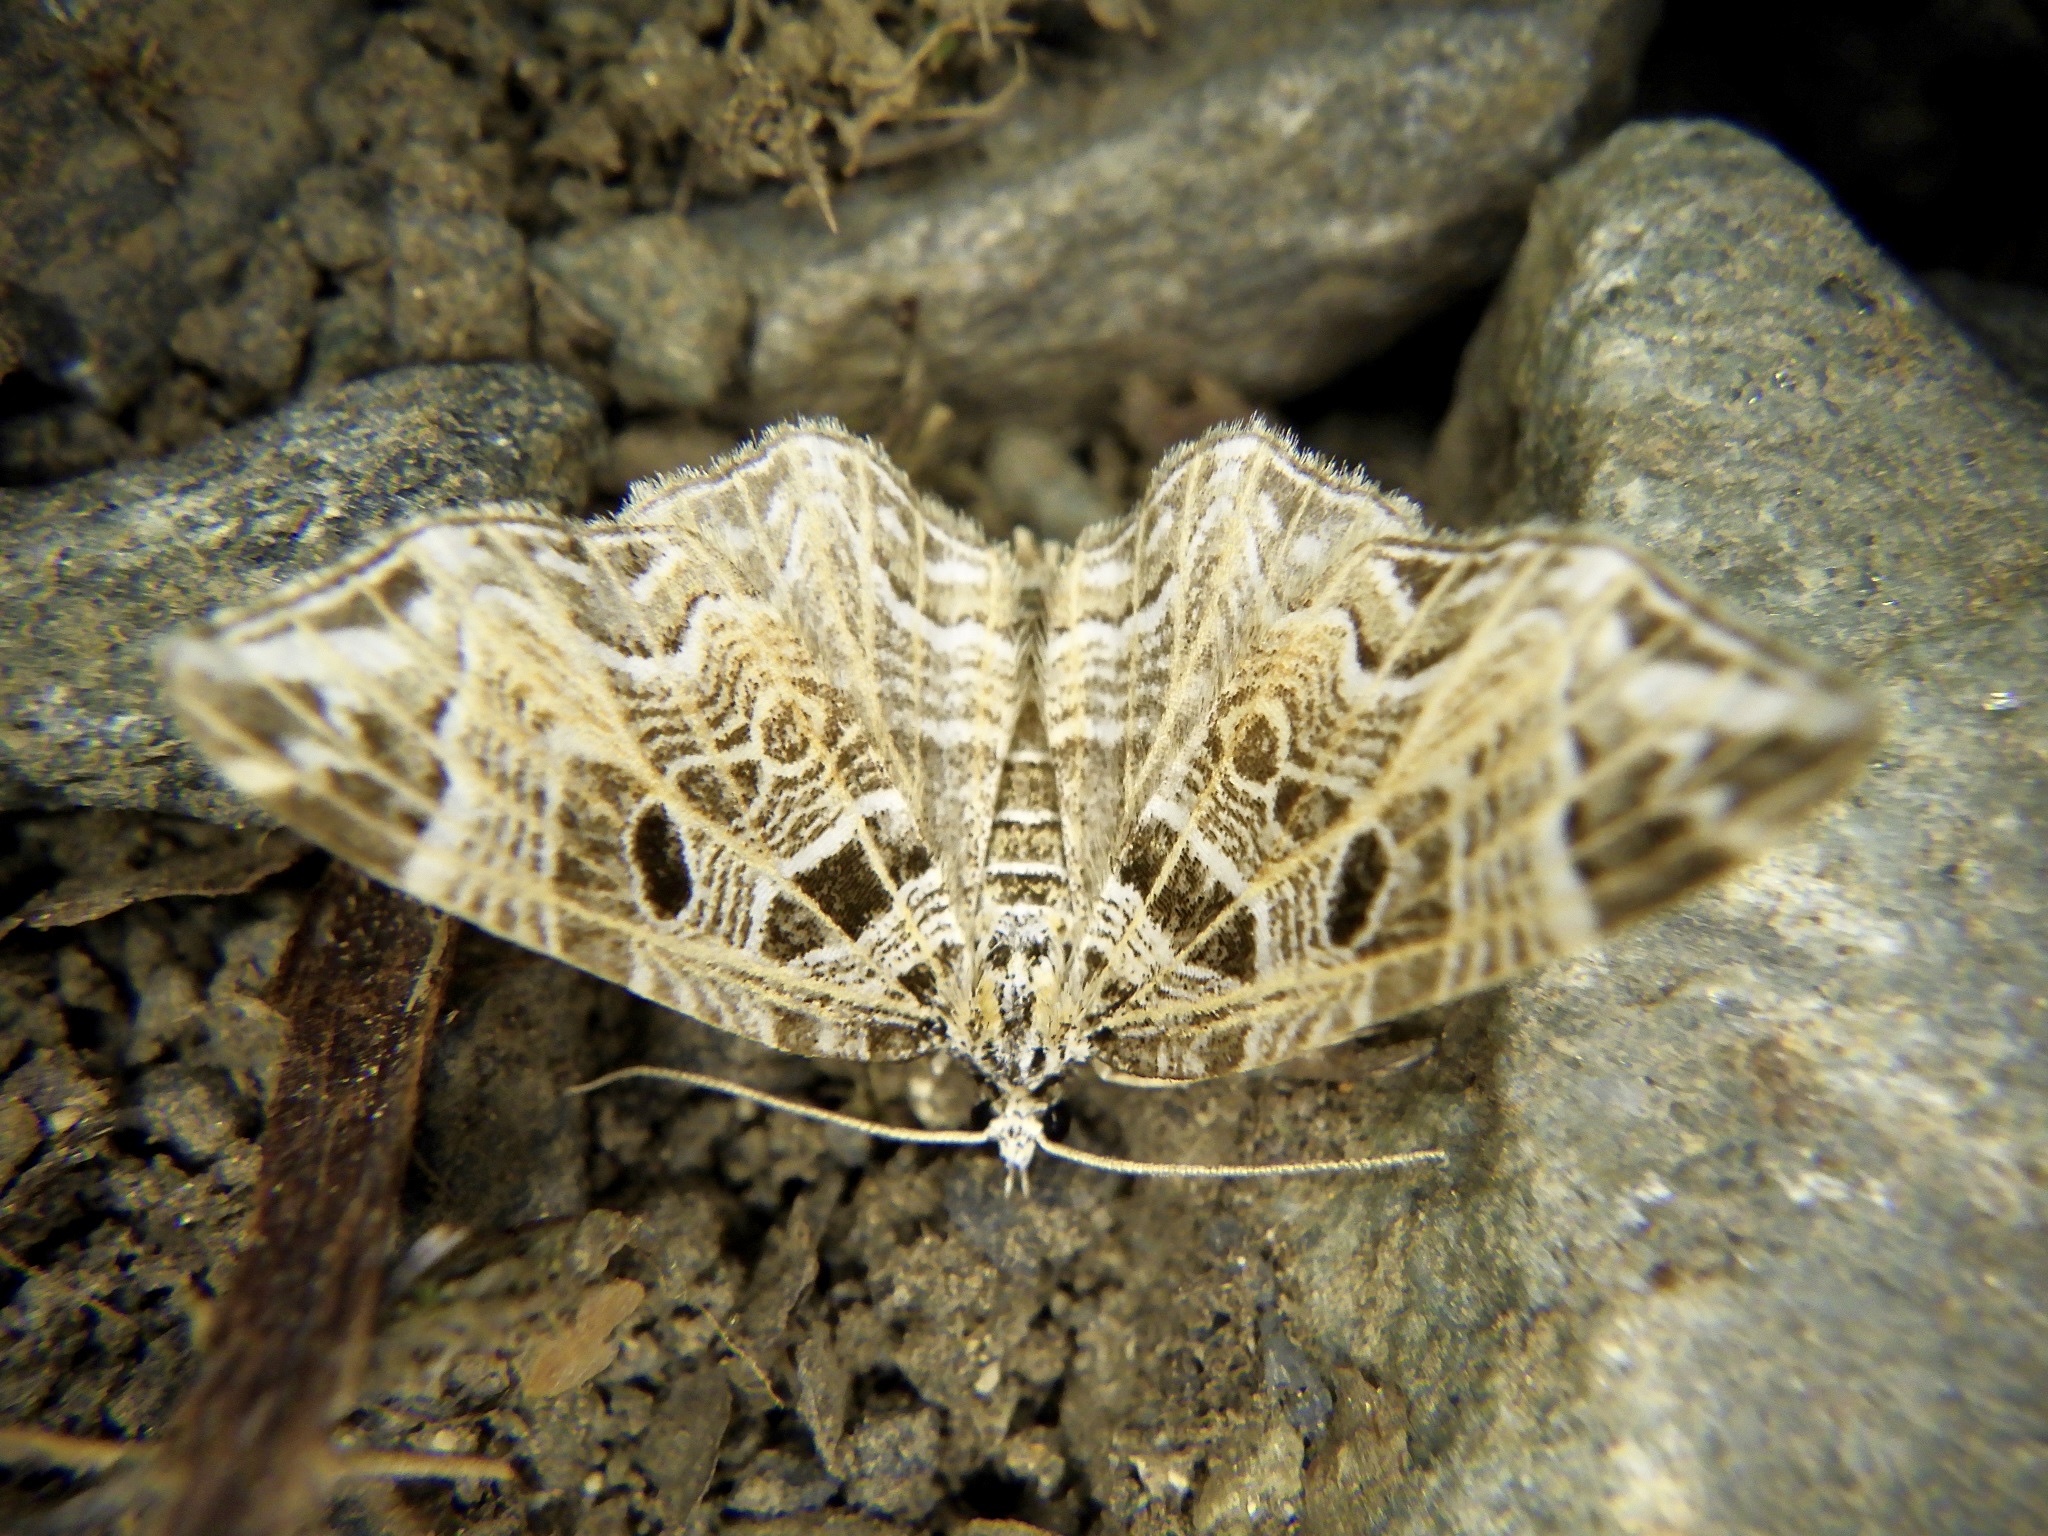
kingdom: Animalia
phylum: Arthropoda
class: Insecta
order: Lepidoptera
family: Geometridae
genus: Lobogonodes
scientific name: Lobogonodes erectaria
